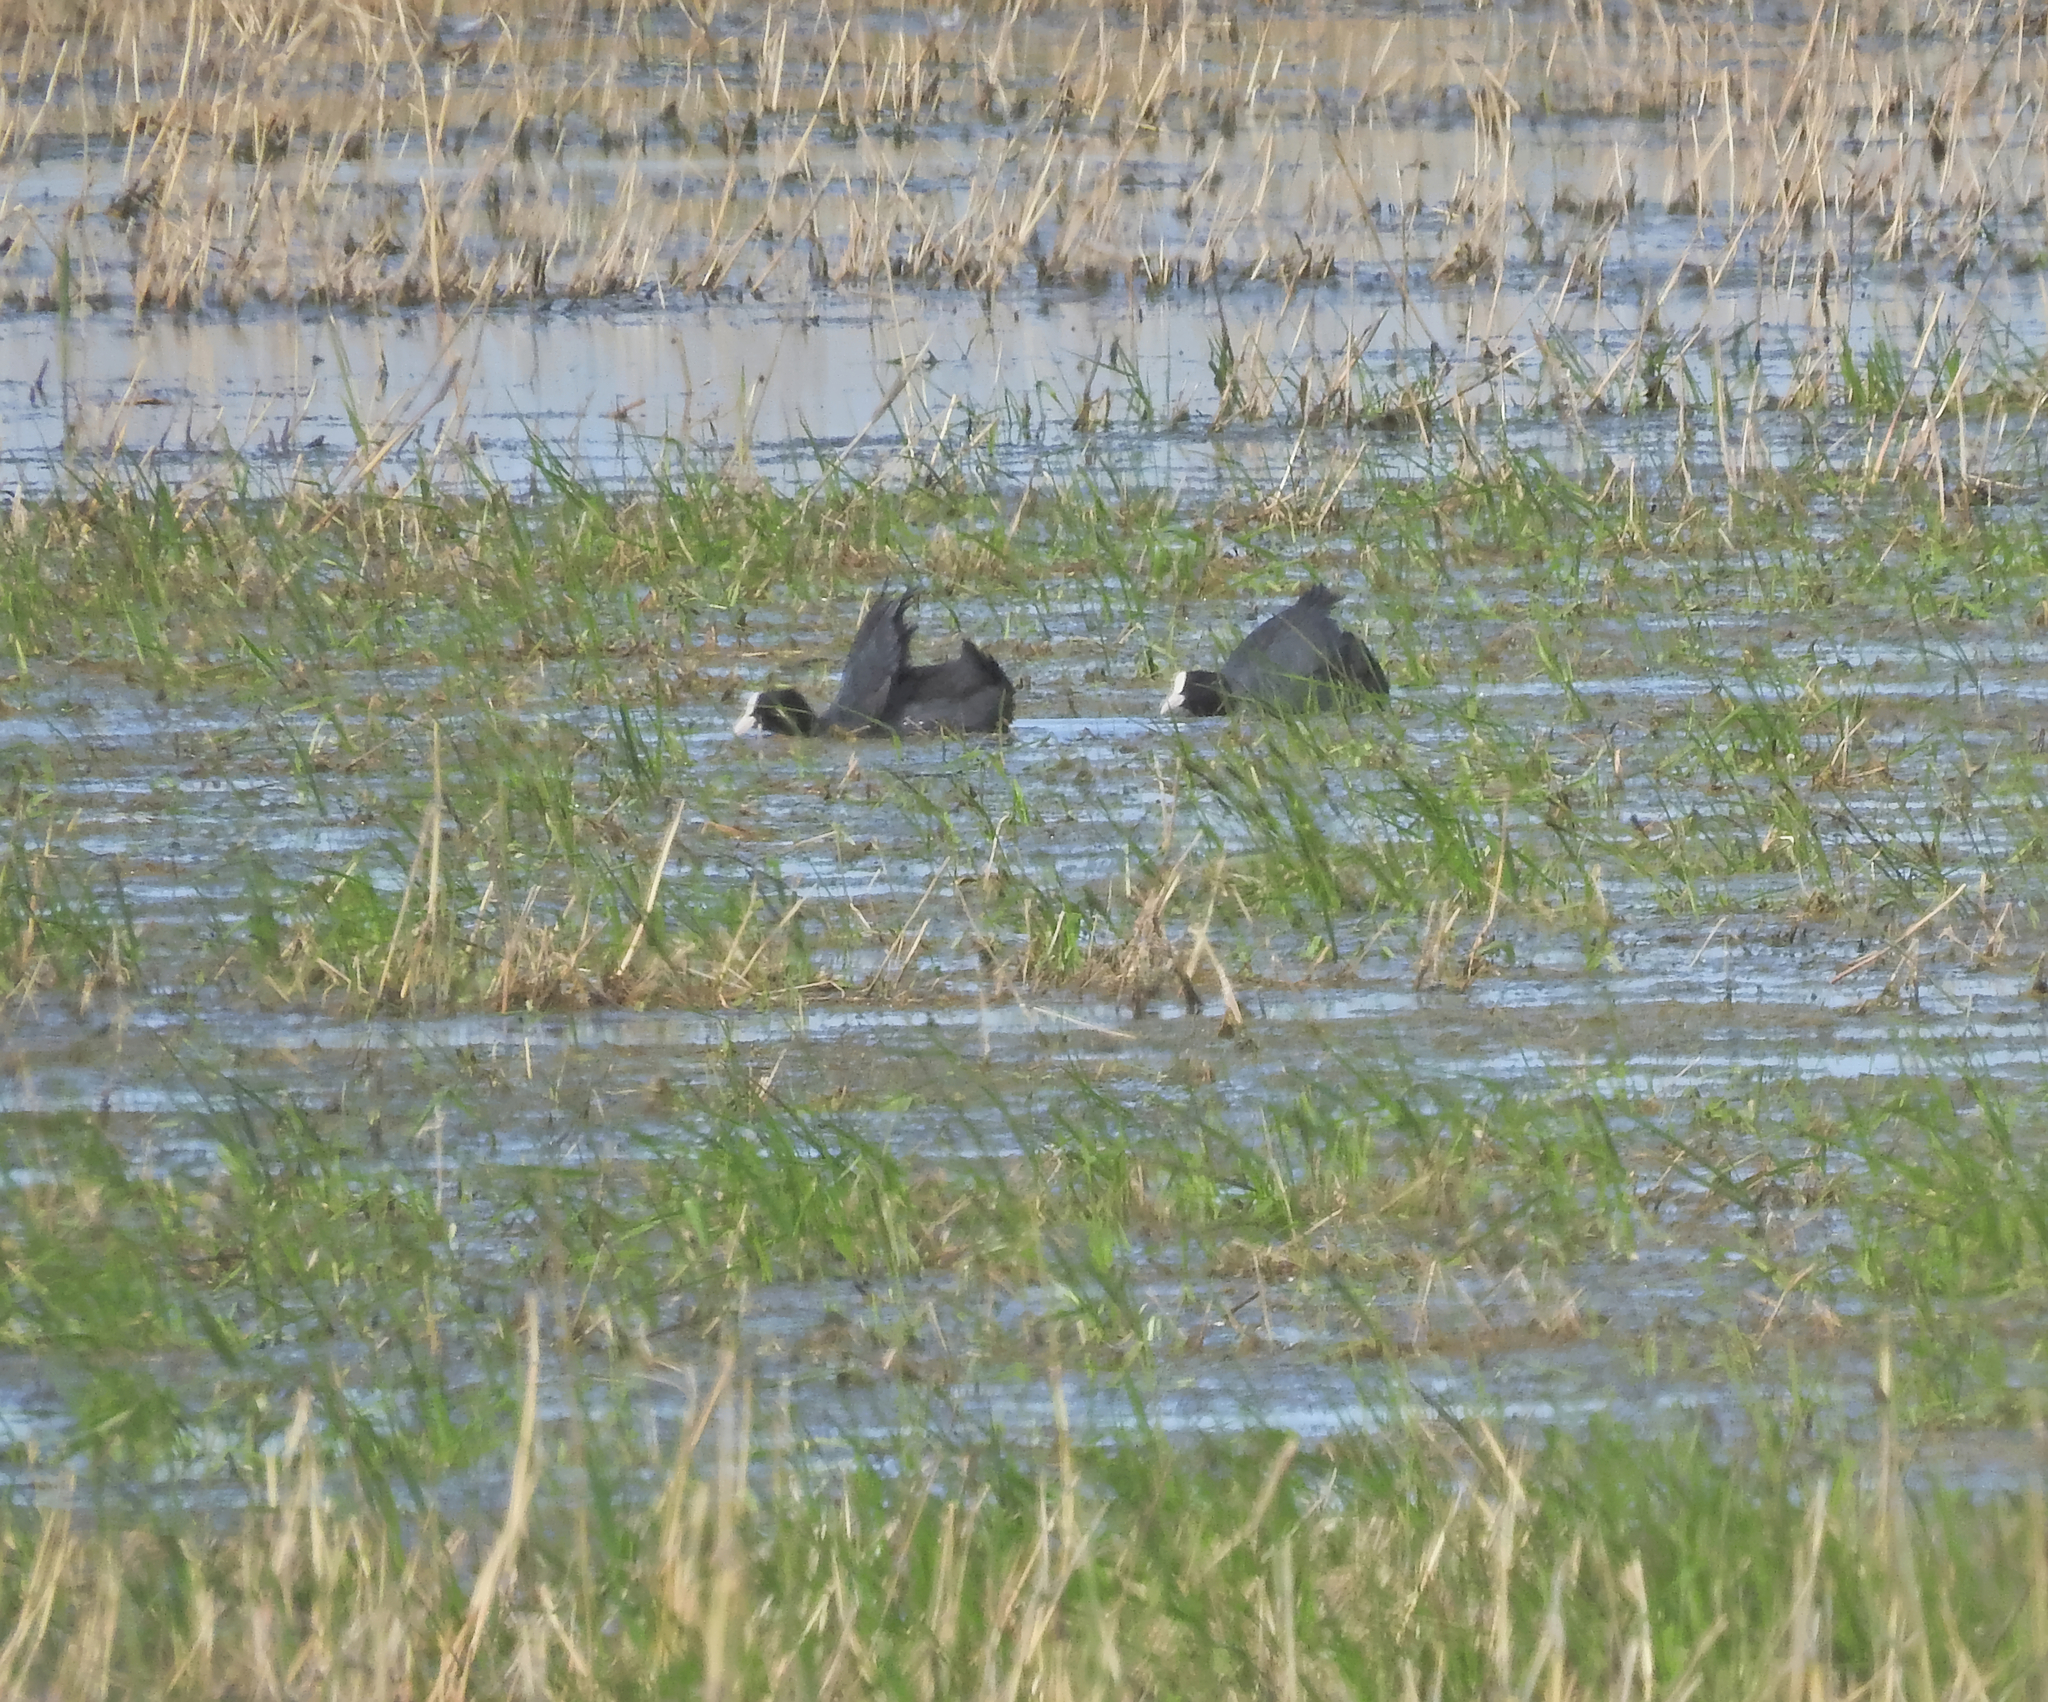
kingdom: Animalia
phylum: Chordata
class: Aves
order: Gruiformes
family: Rallidae
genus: Fulica
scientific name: Fulica atra
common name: Eurasian coot
